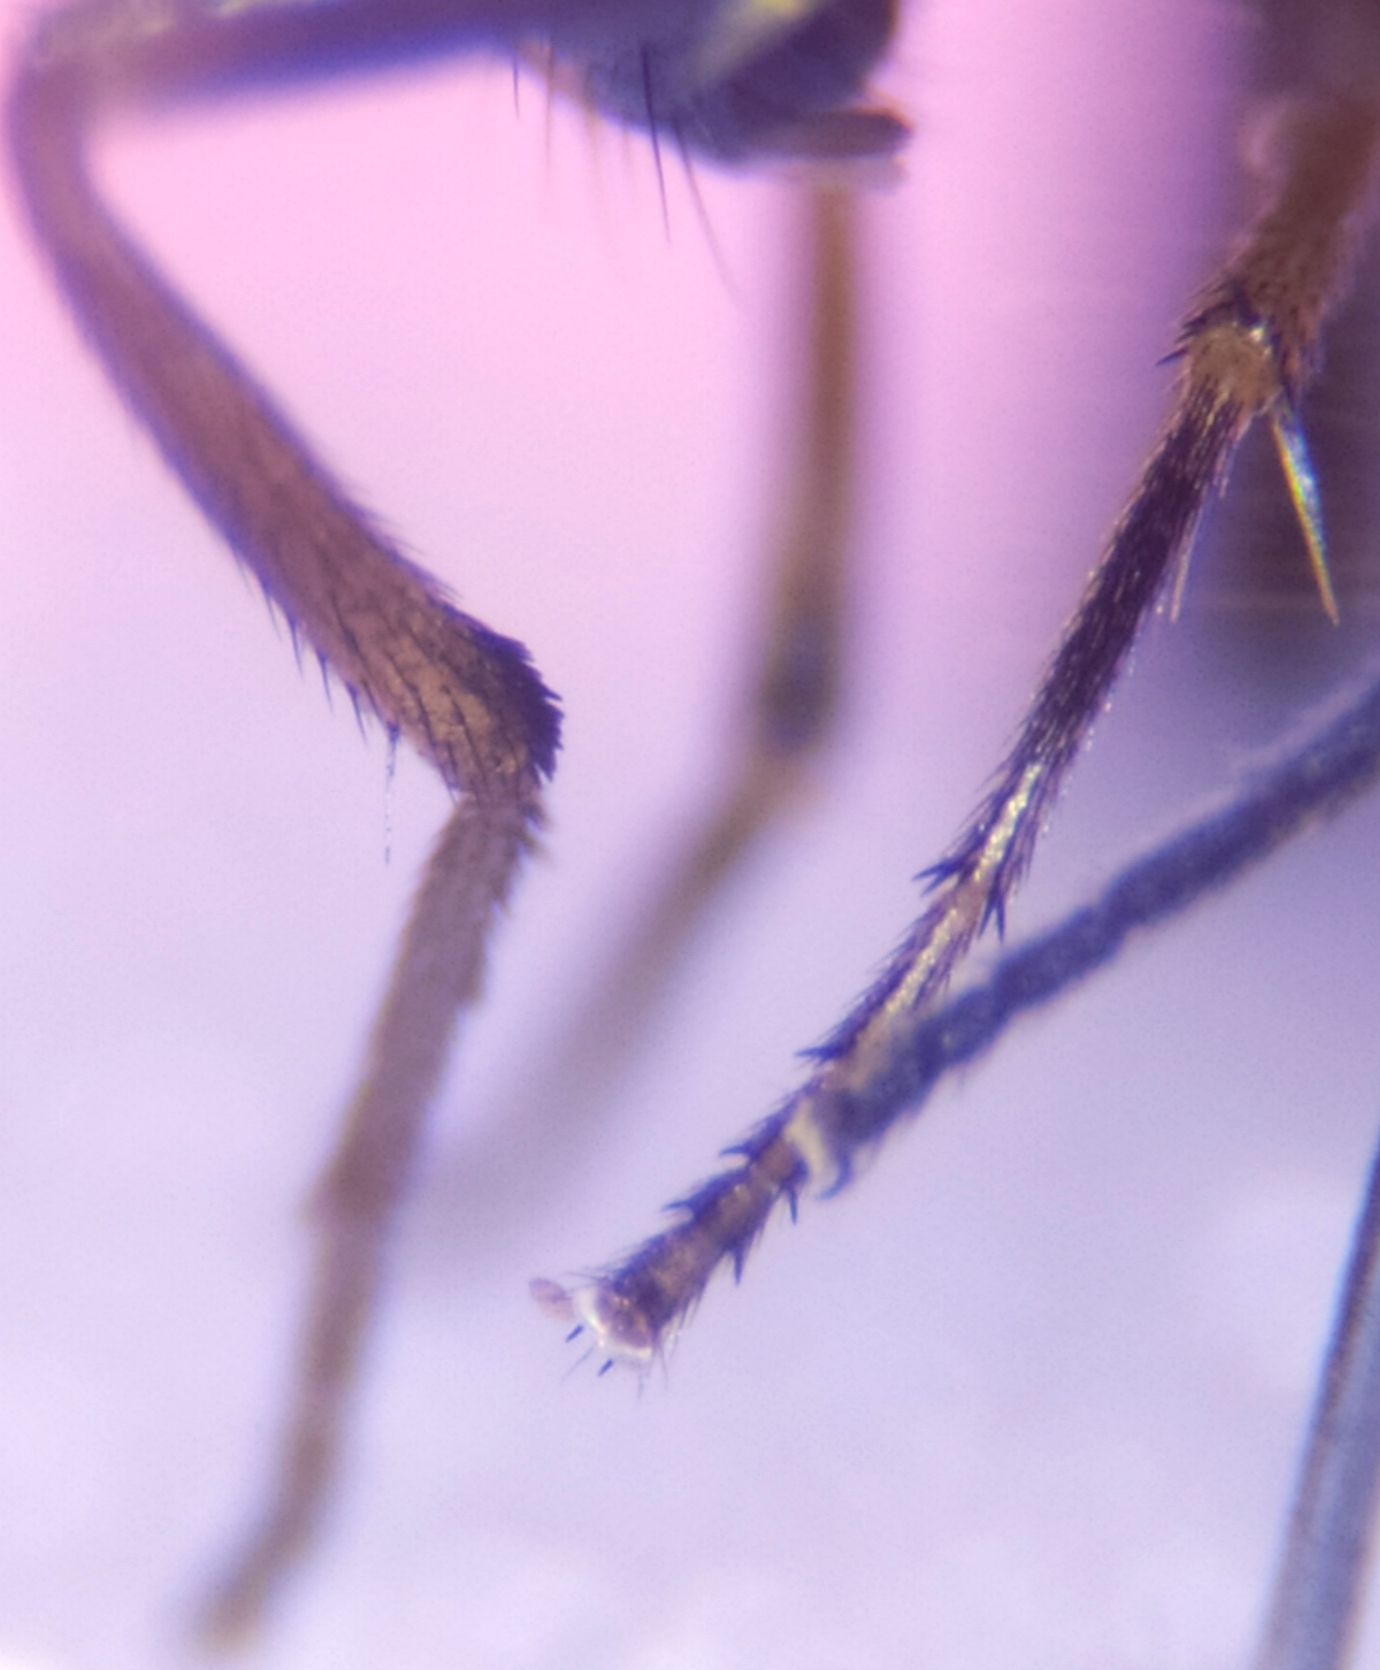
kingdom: Animalia
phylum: Arthropoda
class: Insecta
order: Diptera
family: Lauxaniidae
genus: Calliopum
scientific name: Calliopum aeneum
